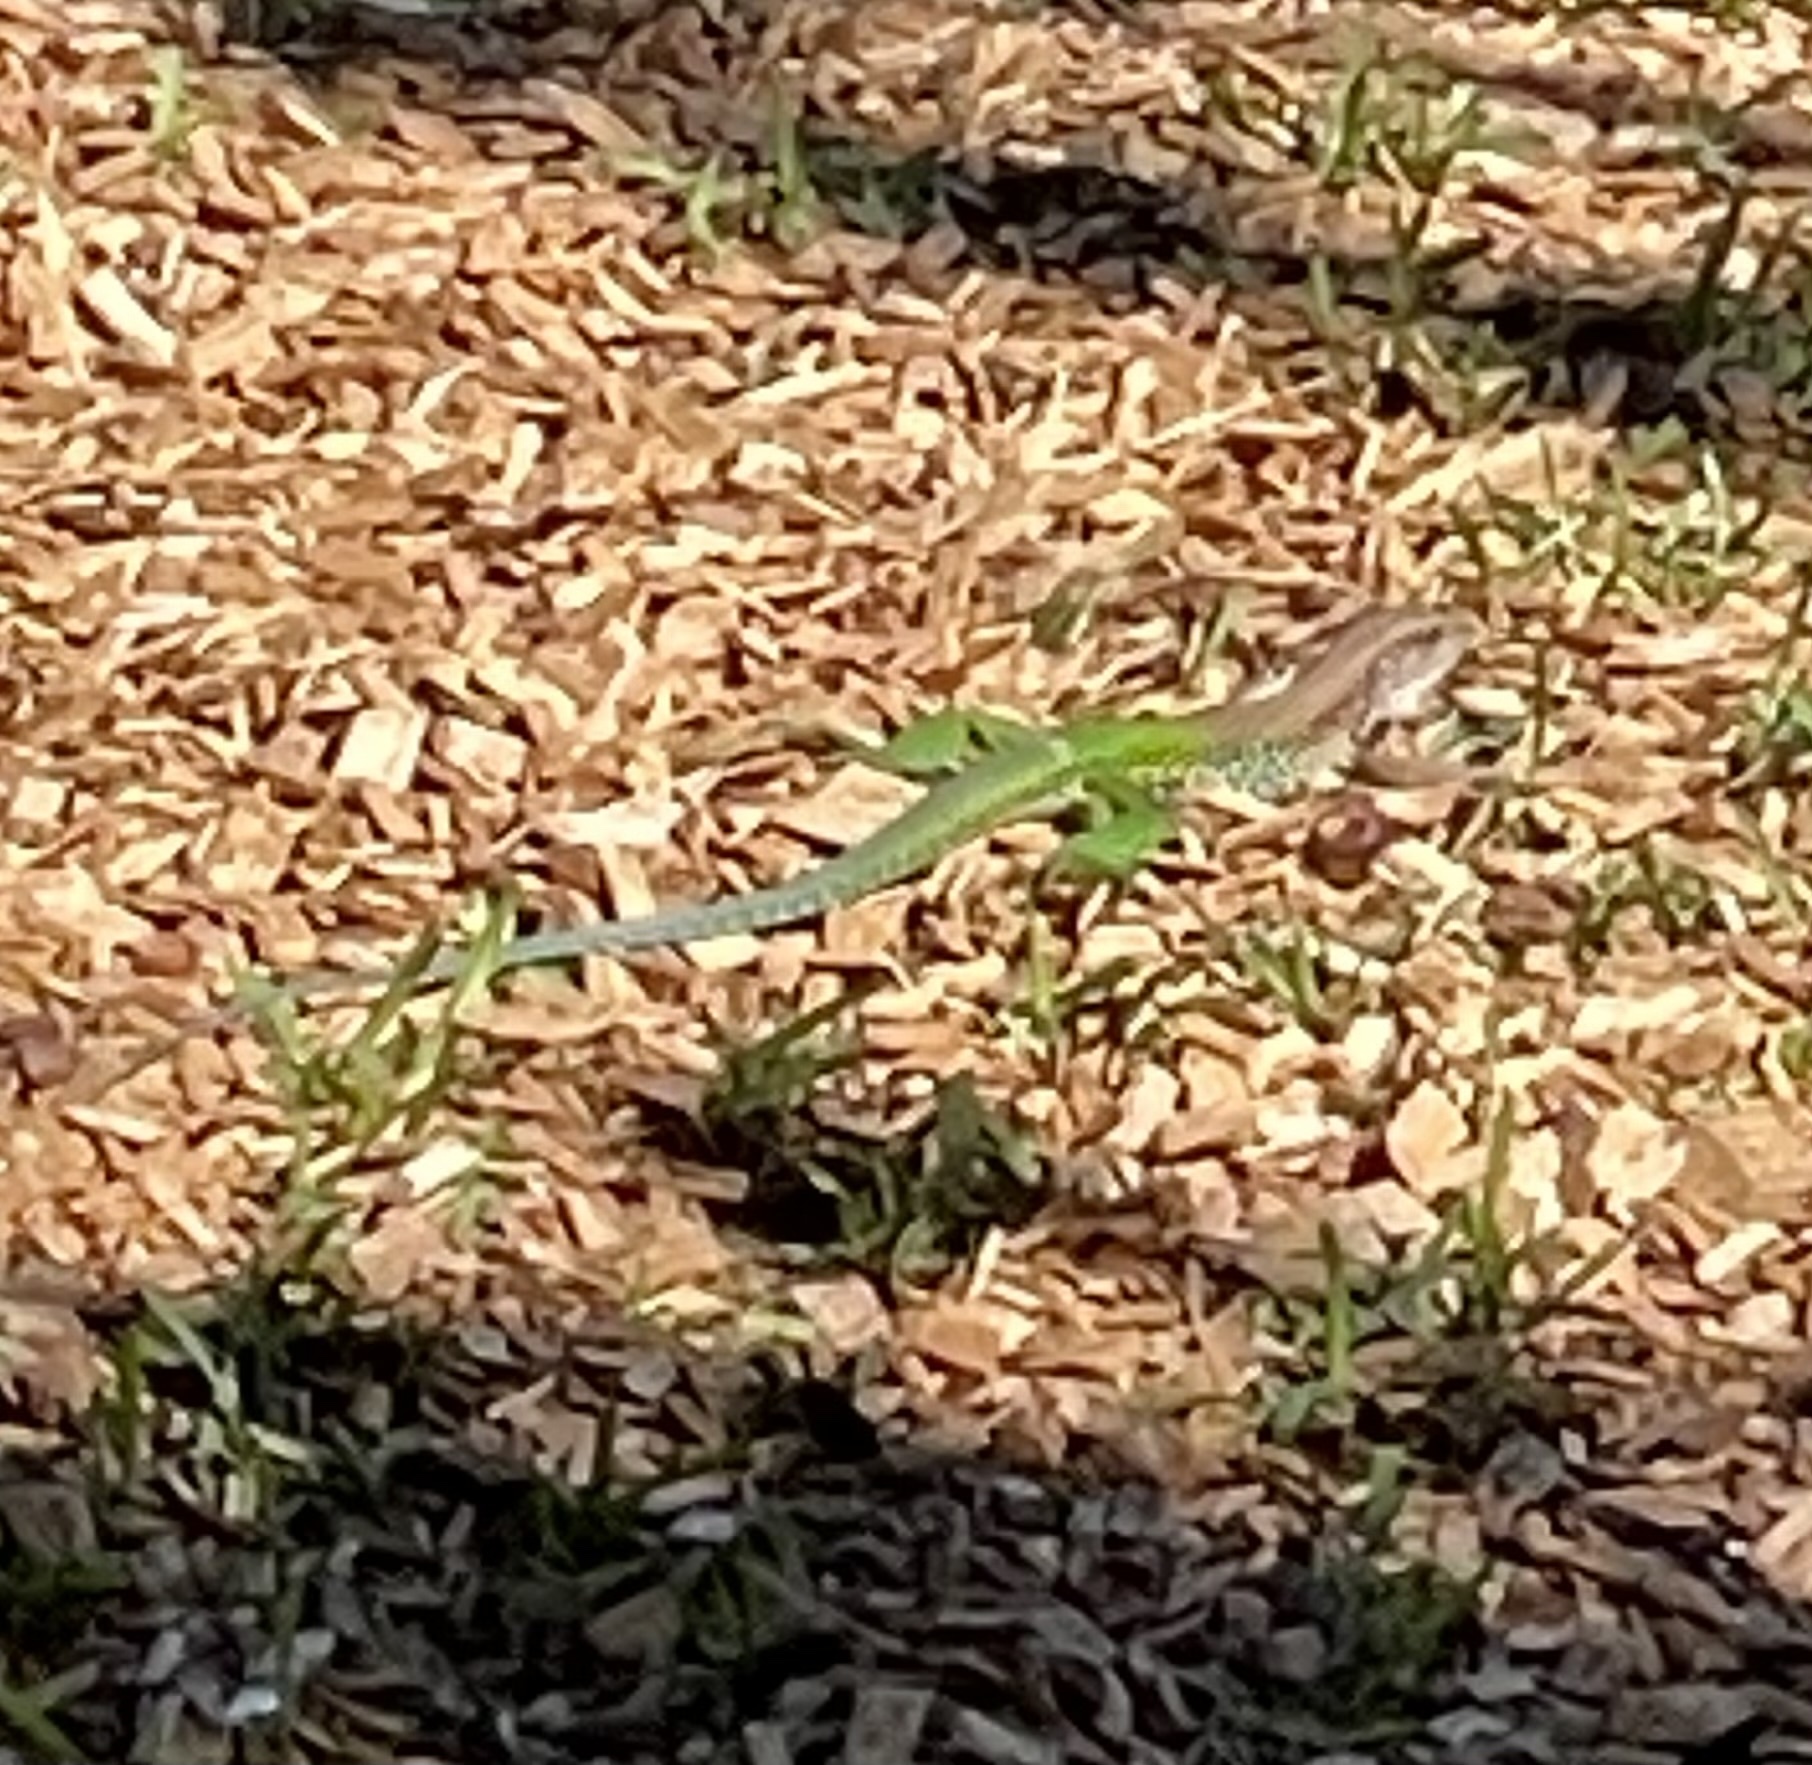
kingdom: Animalia
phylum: Chordata
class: Squamata
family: Teiidae
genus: Ameiva
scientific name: Ameiva ameiva
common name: Giant ameiva
